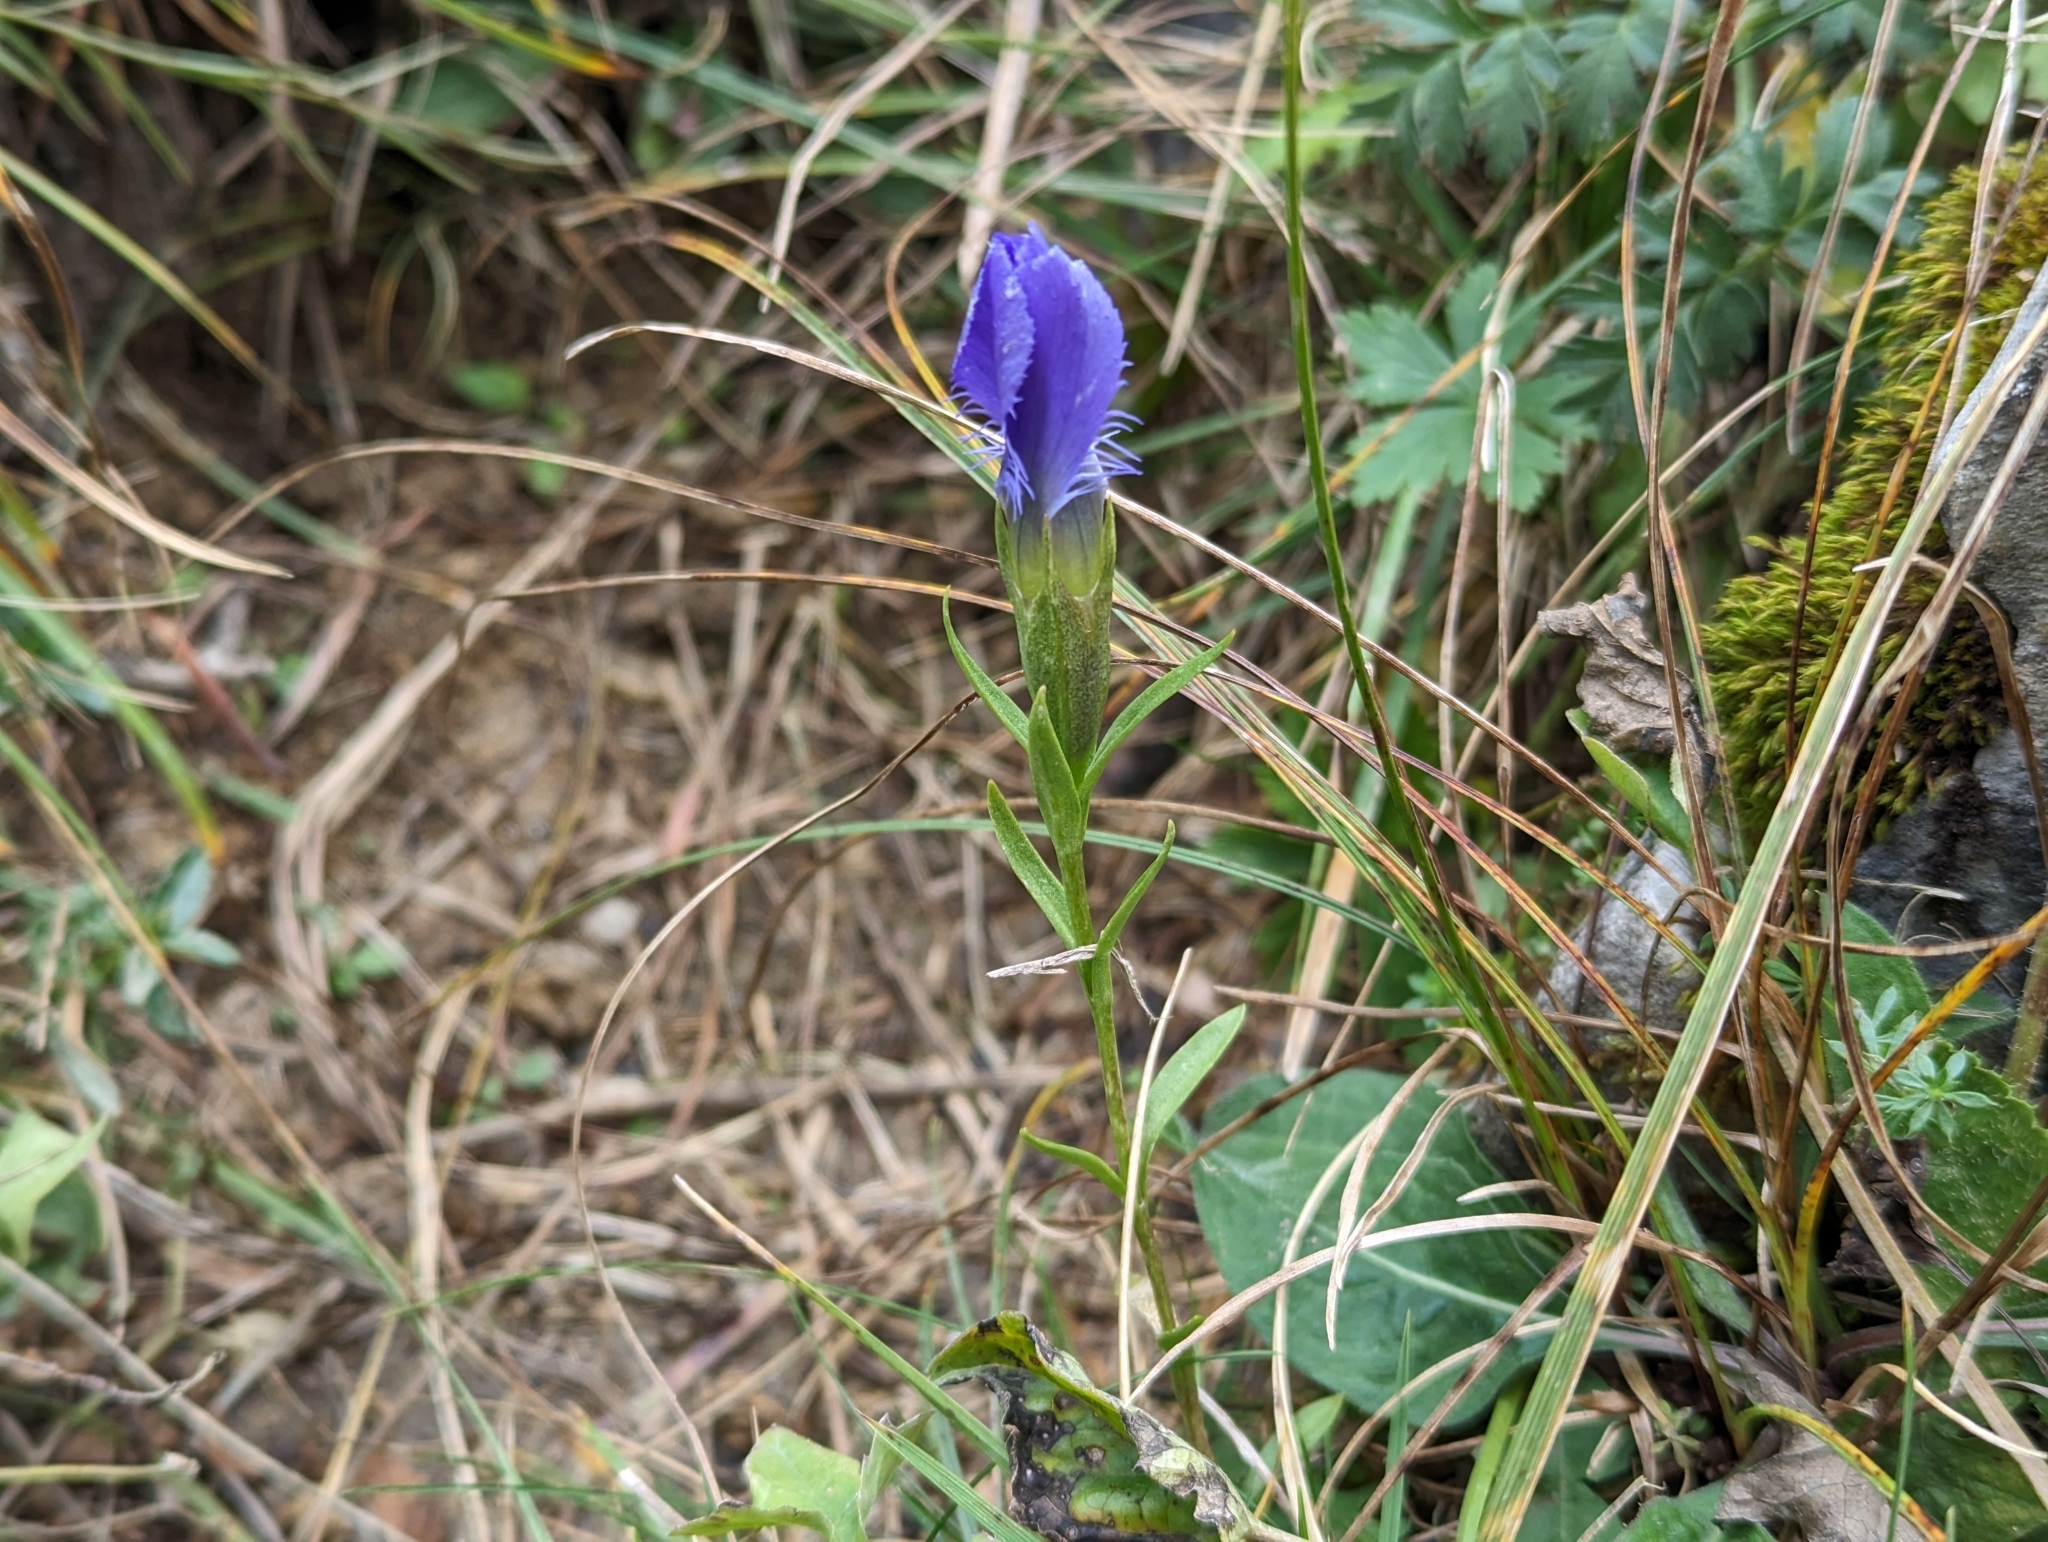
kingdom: Plantae
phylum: Tracheophyta
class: Magnoliopsida
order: Gentianales
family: Gentianaceae
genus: Gentianopsis
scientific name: Gentianopsis ciliata
